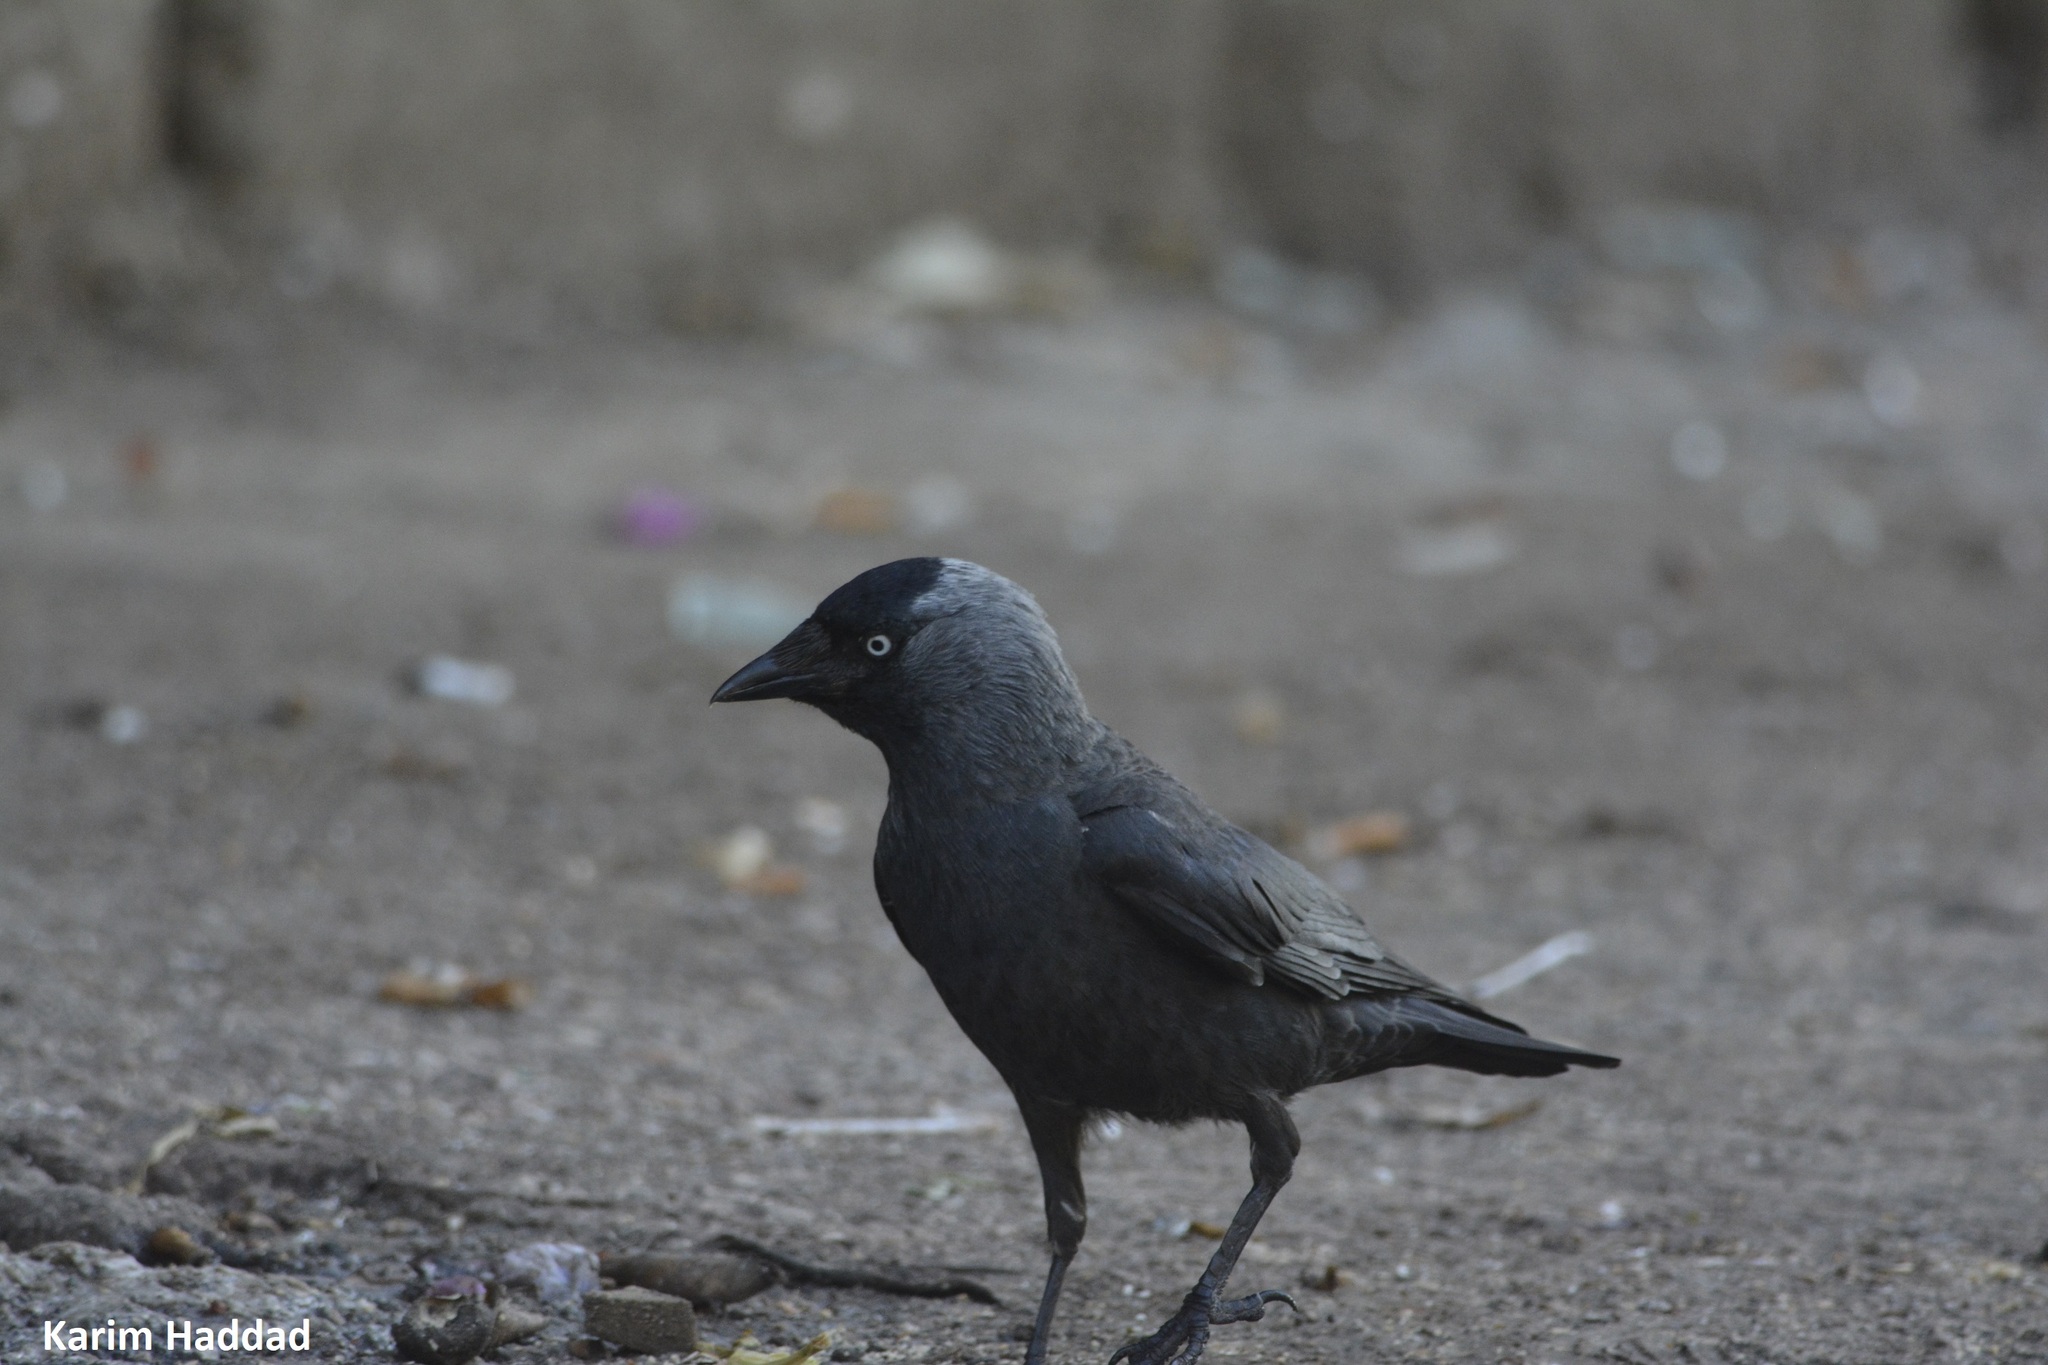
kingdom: Animalia
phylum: Chordata
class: Aves
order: Passeriformes
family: Corvidae
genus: Coloeus
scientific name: Coloeus monedula
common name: Western jackdaw
